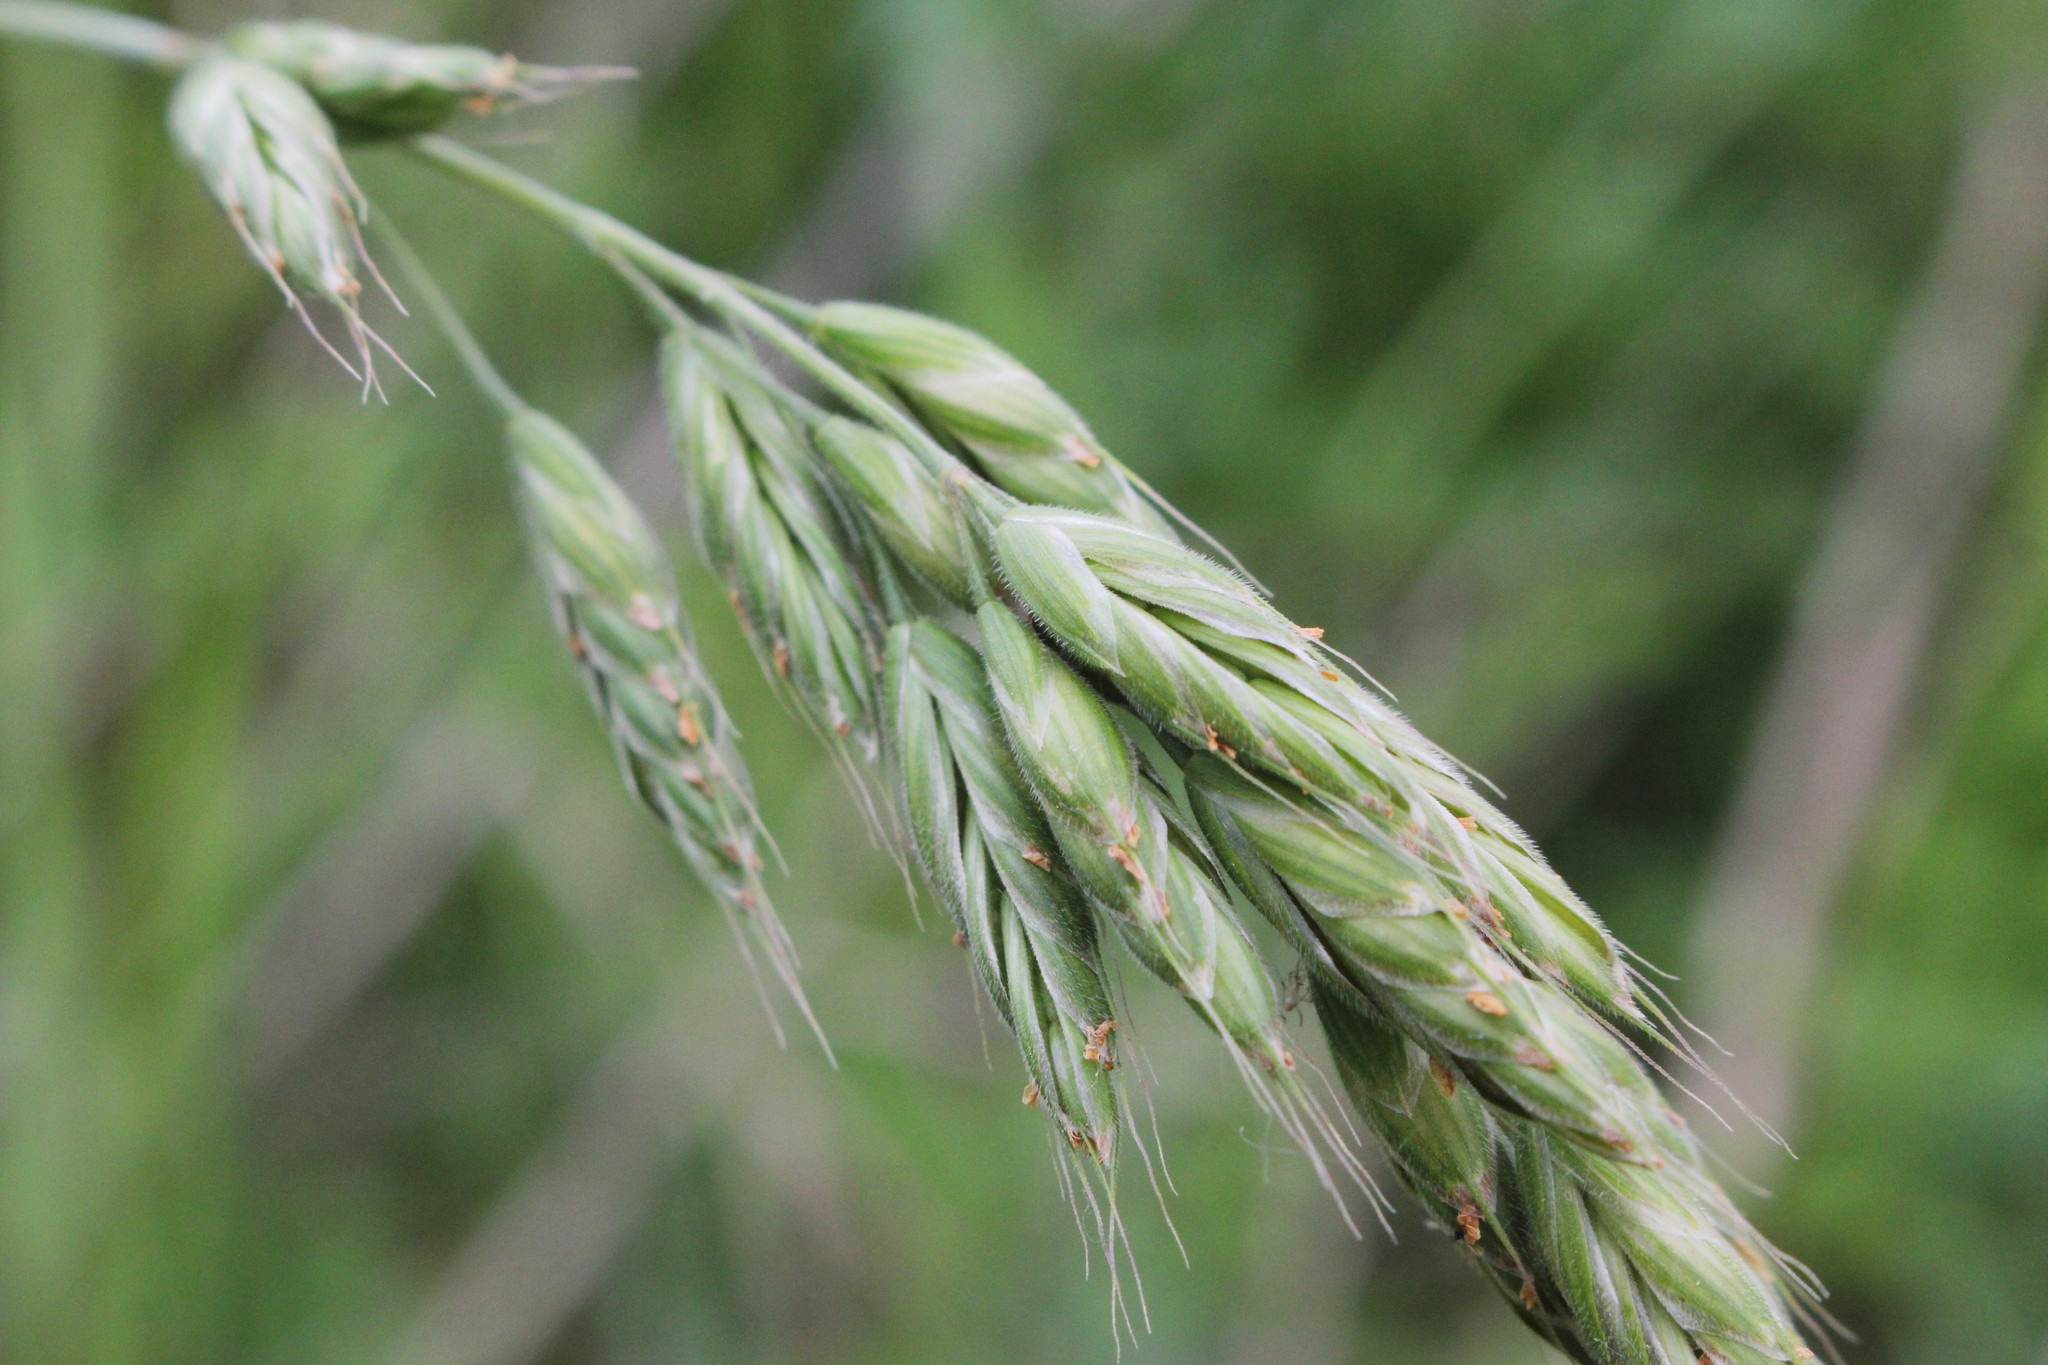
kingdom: Plantae
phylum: Tracheophyta
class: Liliopsida
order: Poales
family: Poaceae
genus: Bromus
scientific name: Bromus hordeaceus
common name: Soft brome
